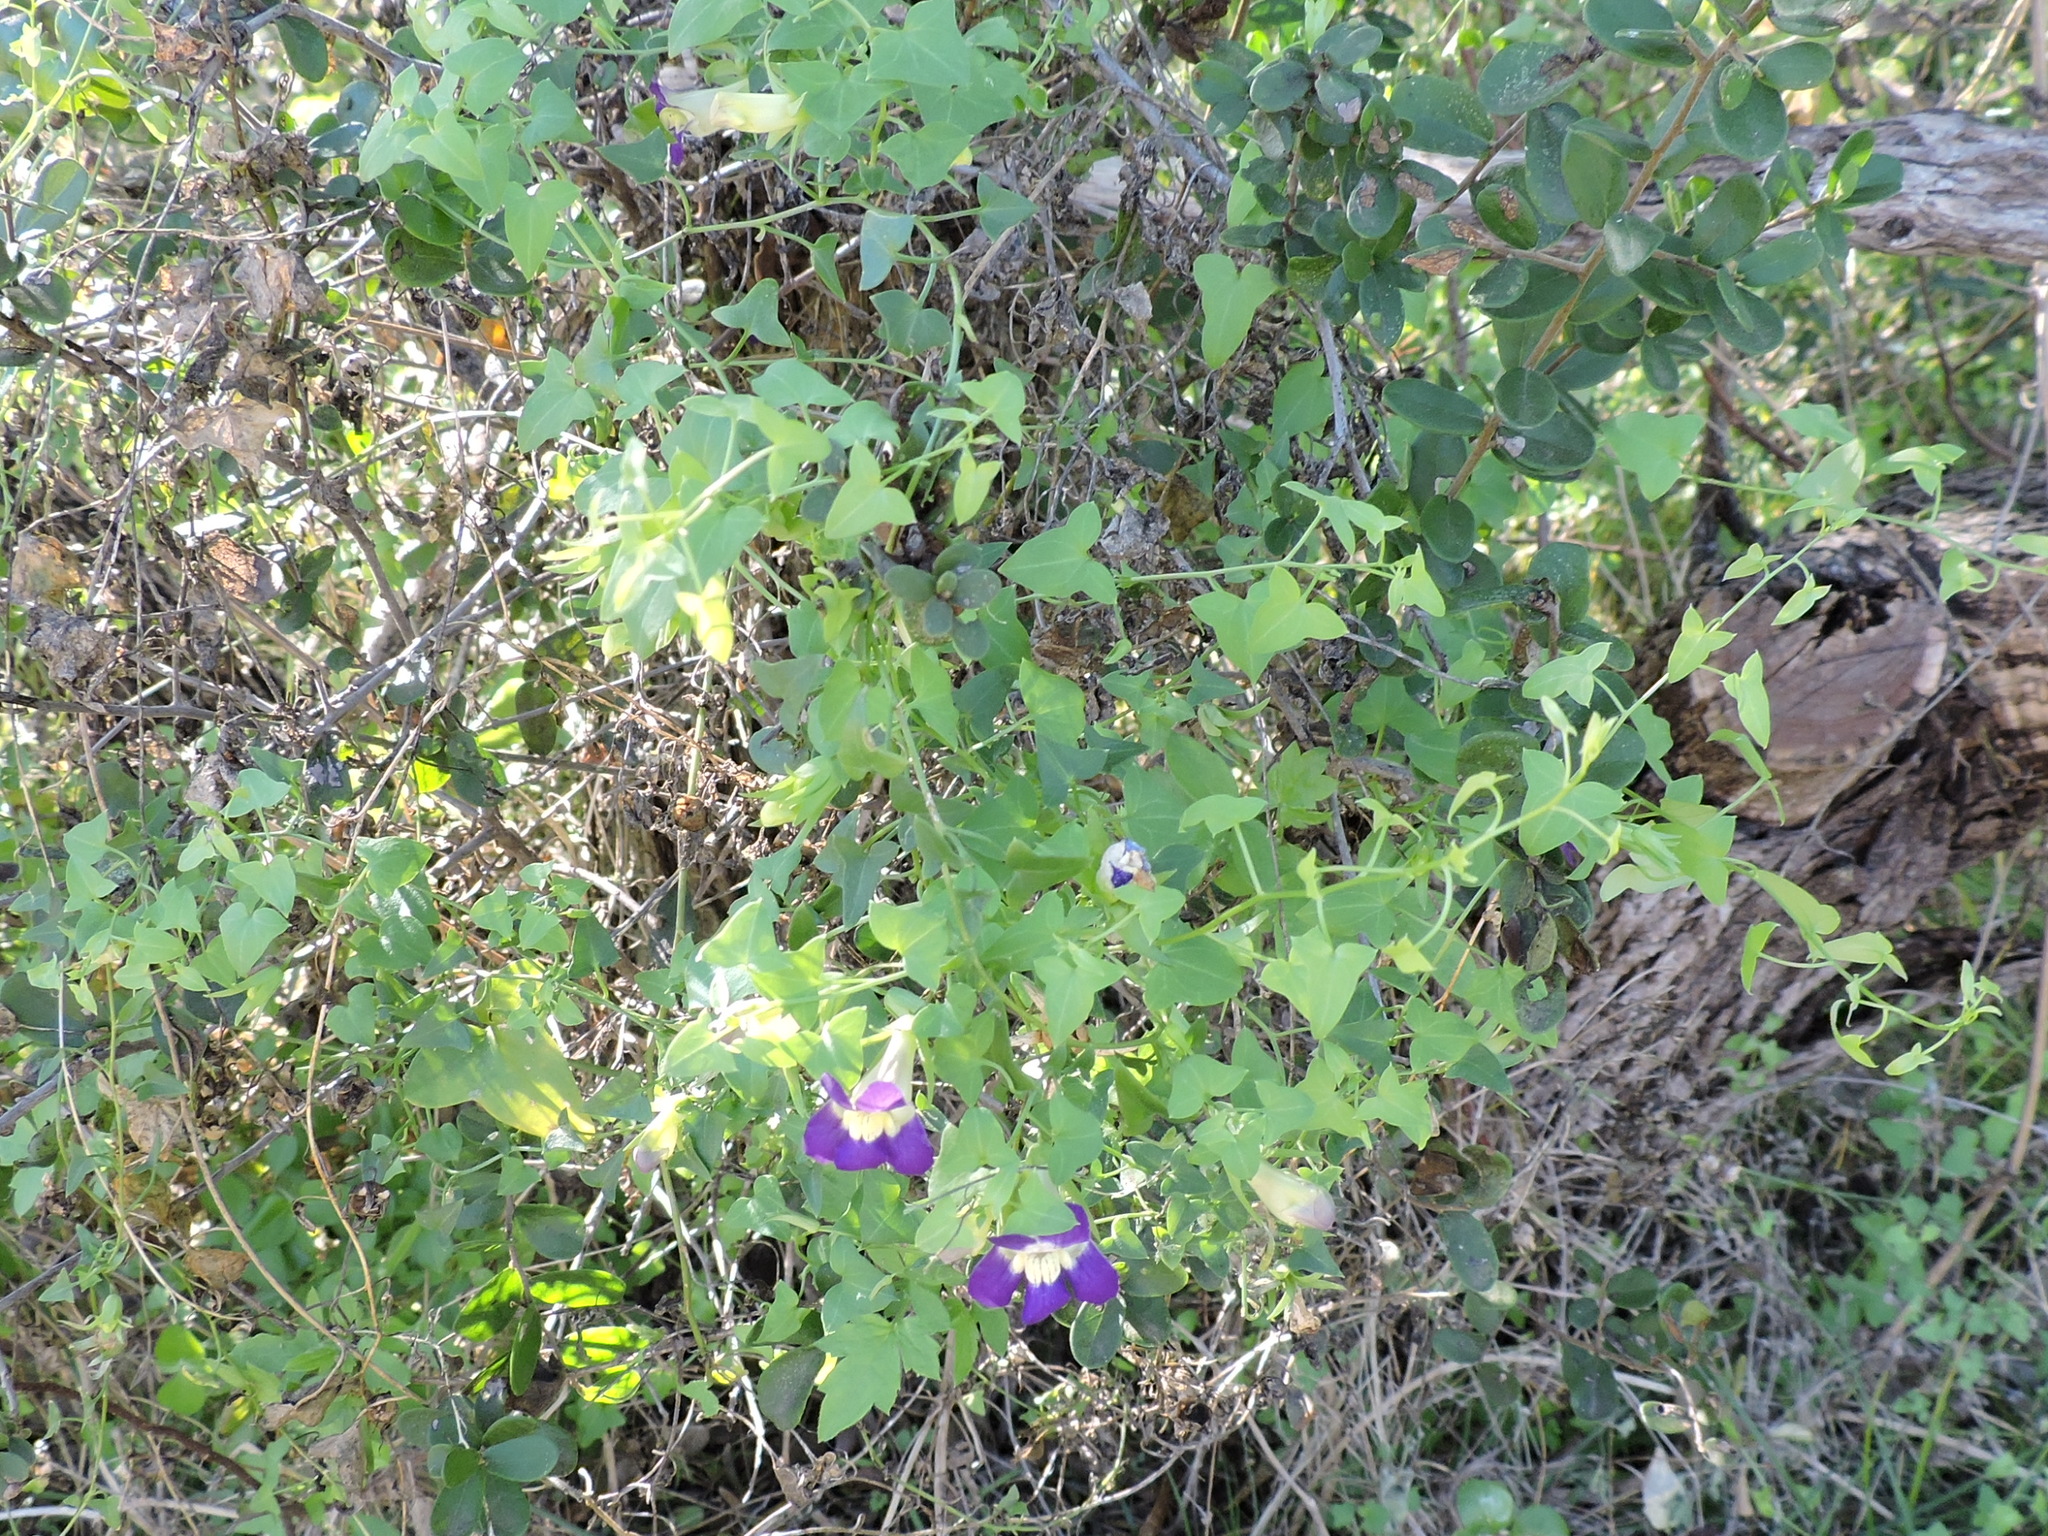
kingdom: Plantae
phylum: Tracheophyta
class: Magnoliopsida
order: Lamiales
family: Plantaginaceae
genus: Maurandella
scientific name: Maurandella antirrhiniflora
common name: Violet twining-snapdragon
